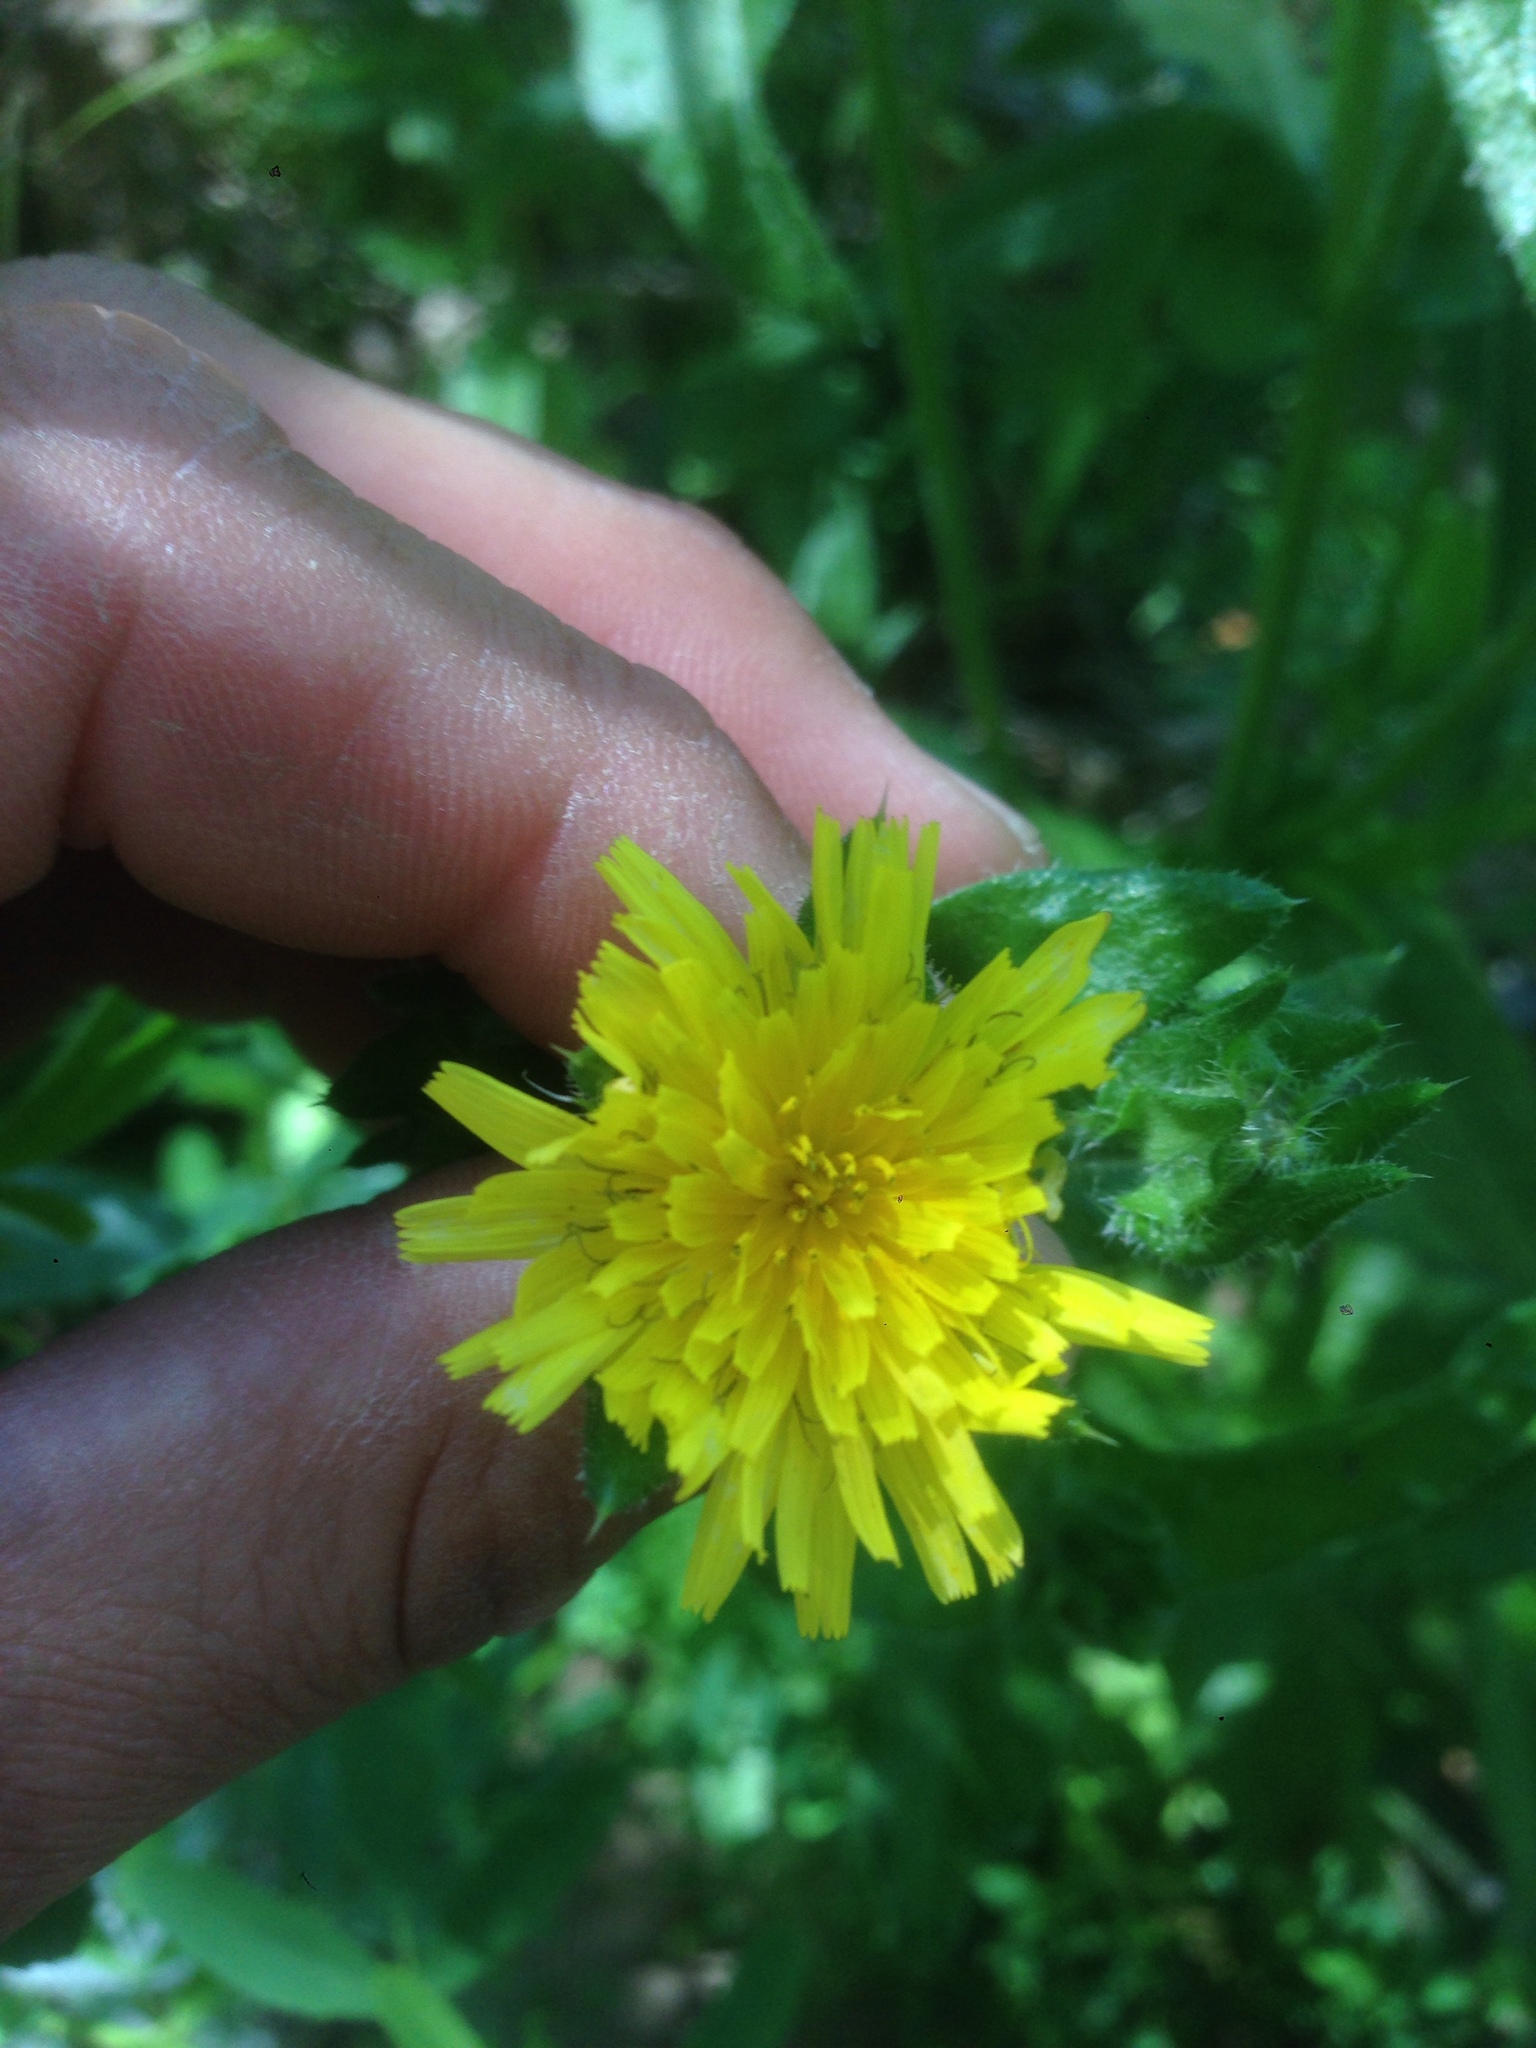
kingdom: Plantae
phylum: Tracheophyta
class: Magnoliopsida
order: Asterales
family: Asteraceae
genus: Helminthotheca
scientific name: Helminthotheca echioides
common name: Ox-tongue
